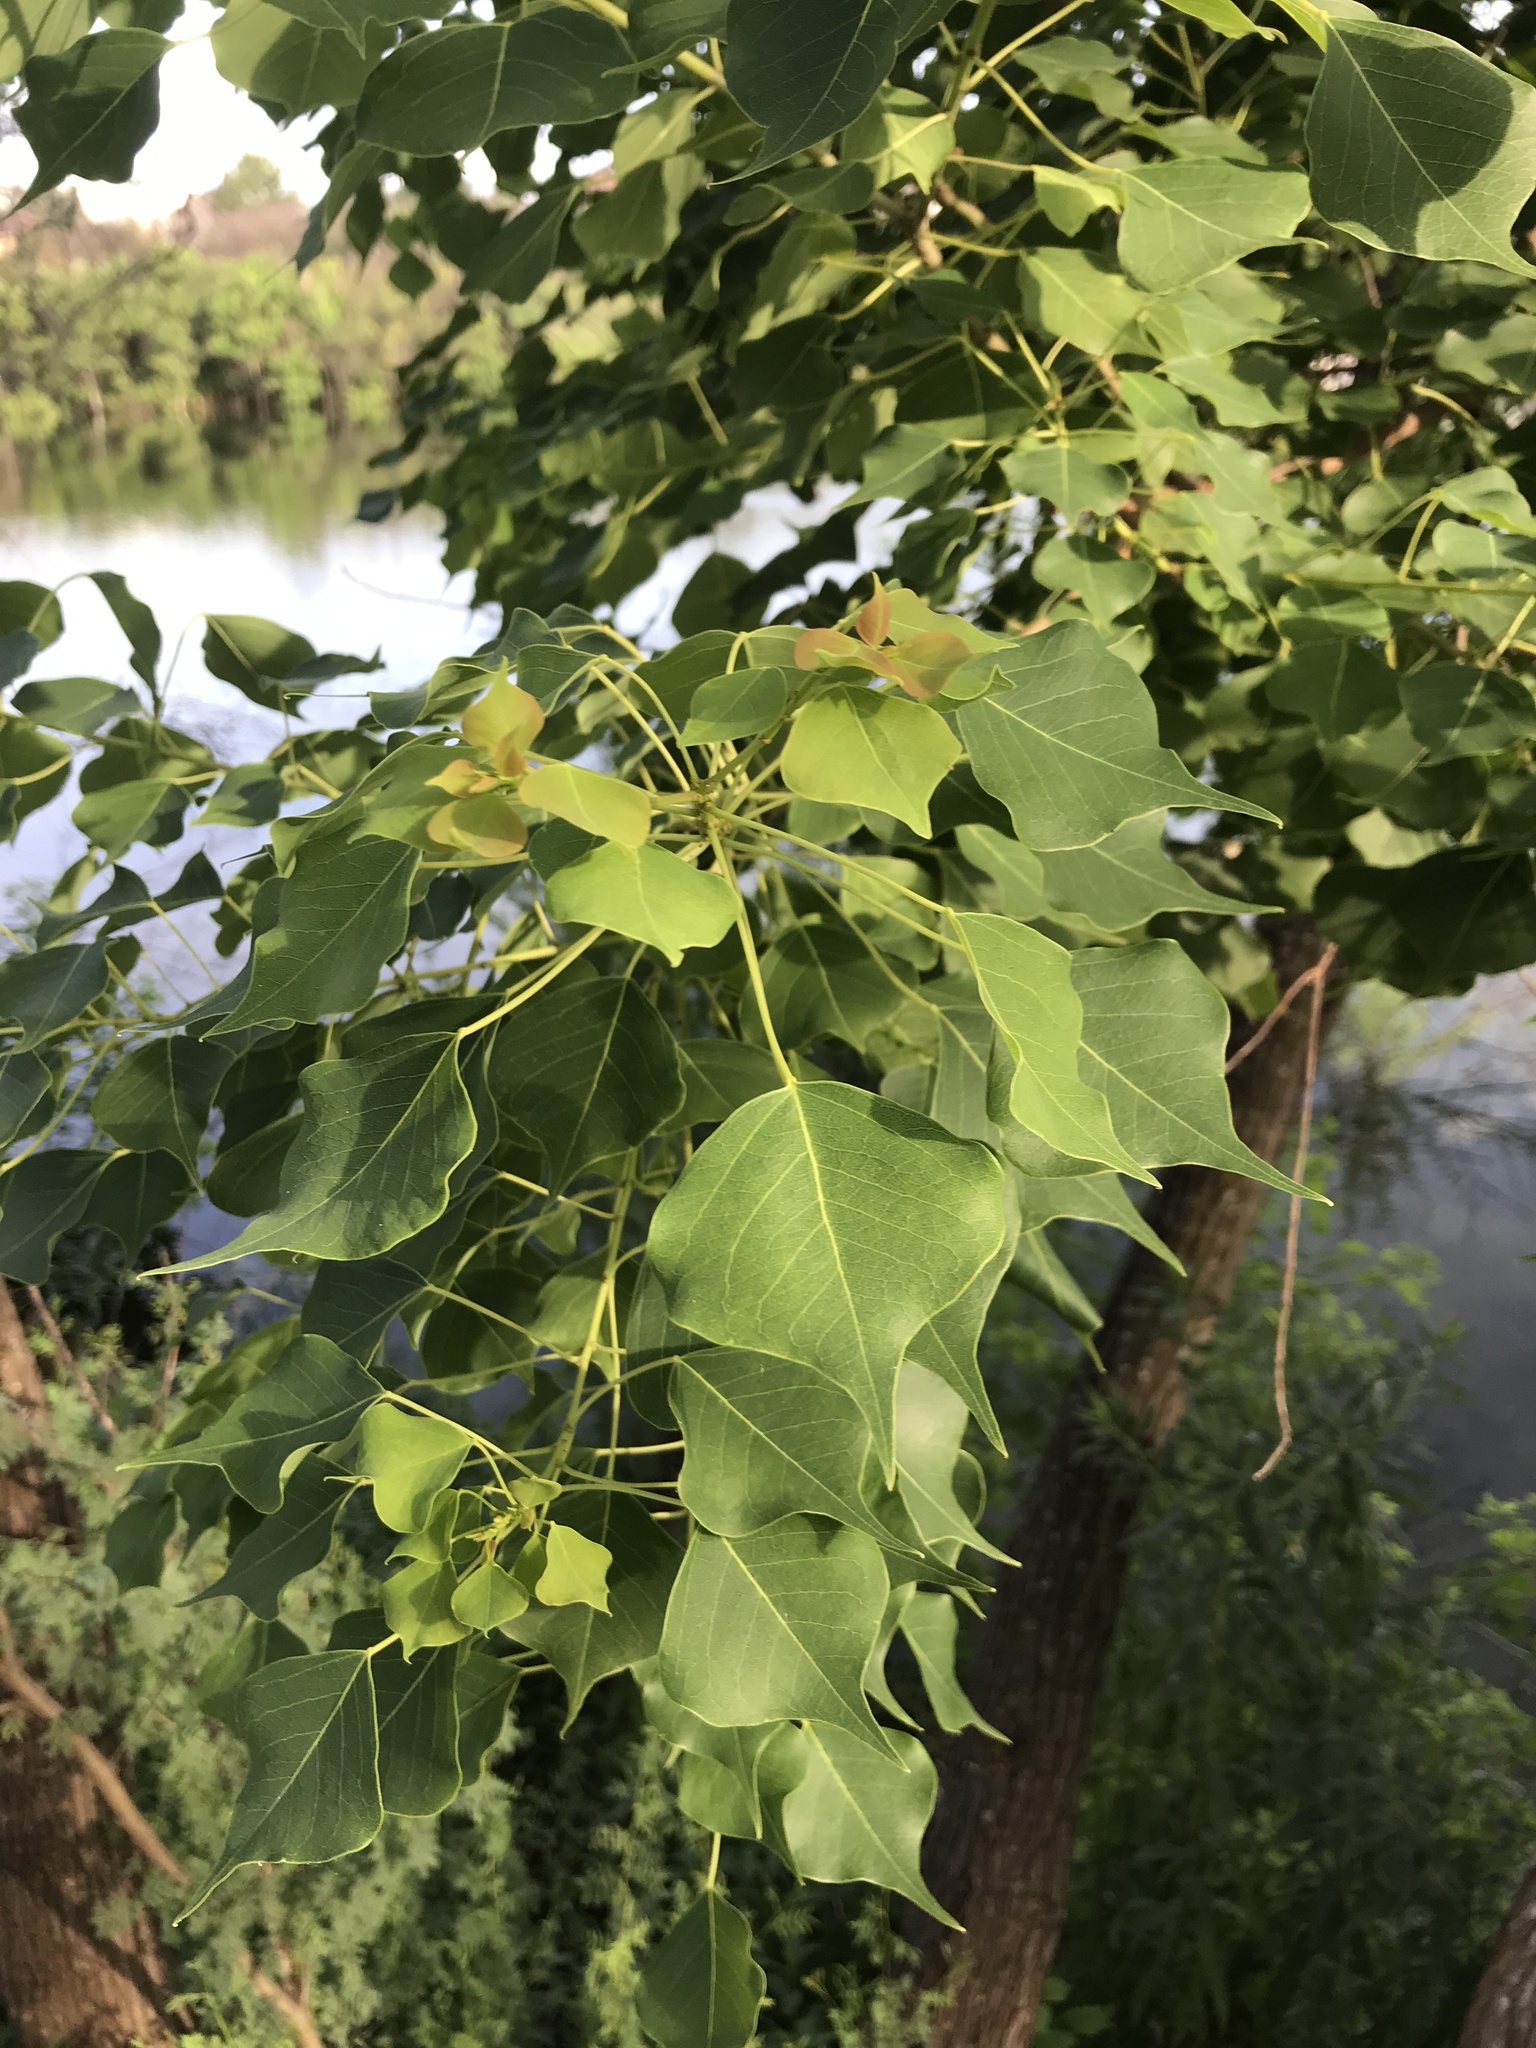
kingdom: Plantae
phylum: Tracheophyta
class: Magnoliopsida
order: Malpighiales
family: Euphorbiaceae
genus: Triadica
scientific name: Triadica sebifera
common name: Chinese tallow
